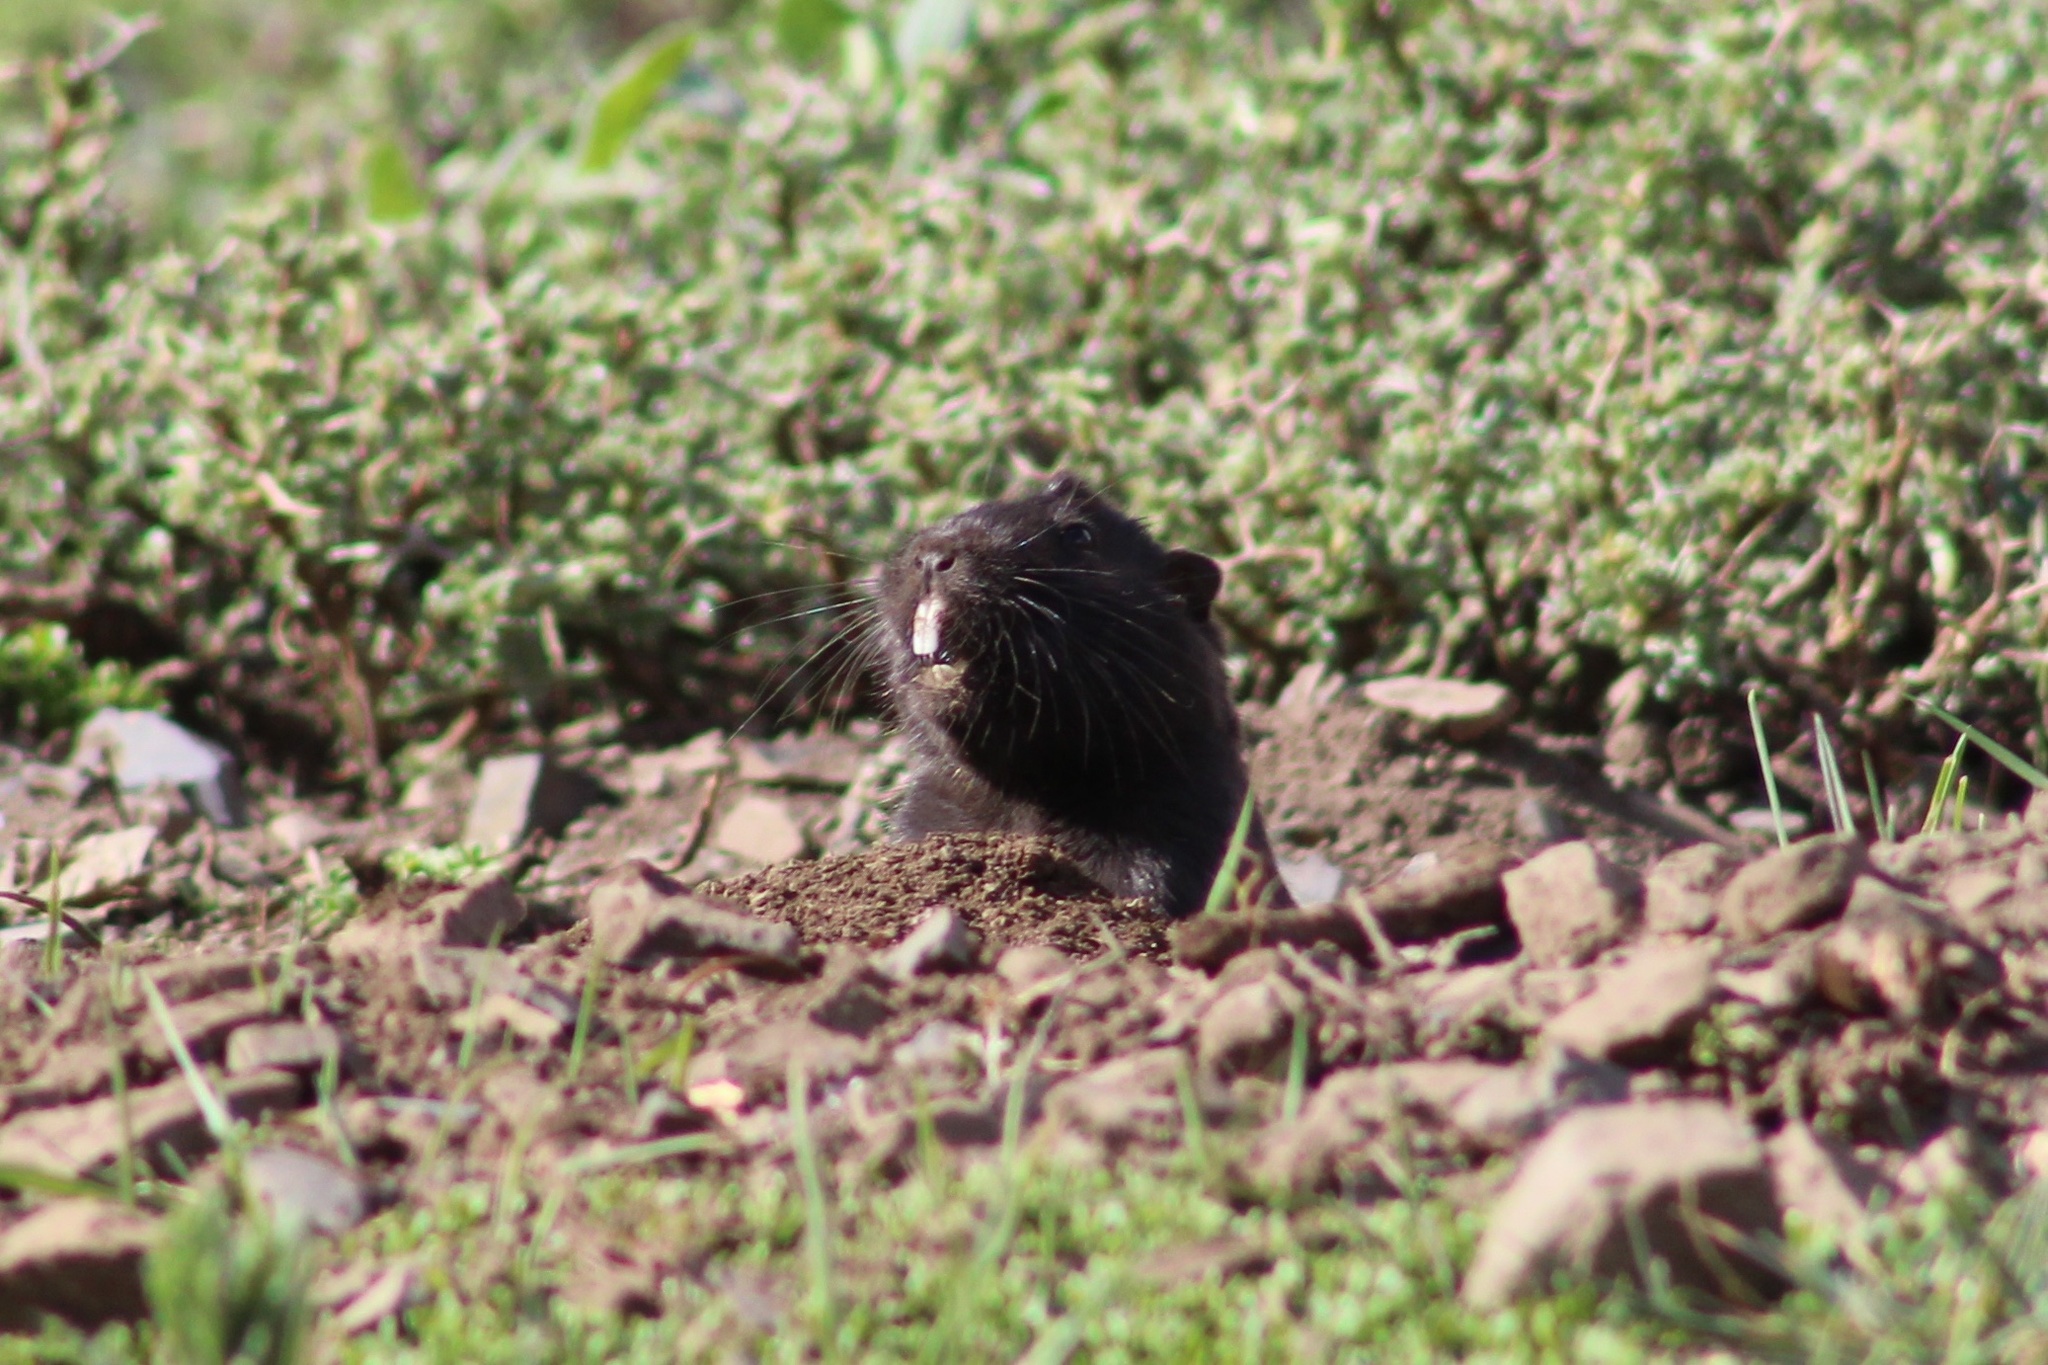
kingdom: Animalia
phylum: Chordata
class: Mammalia
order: Rodentia
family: Octodontidae
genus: Spalacopus
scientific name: Spalacopus cyanus
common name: Coruro
